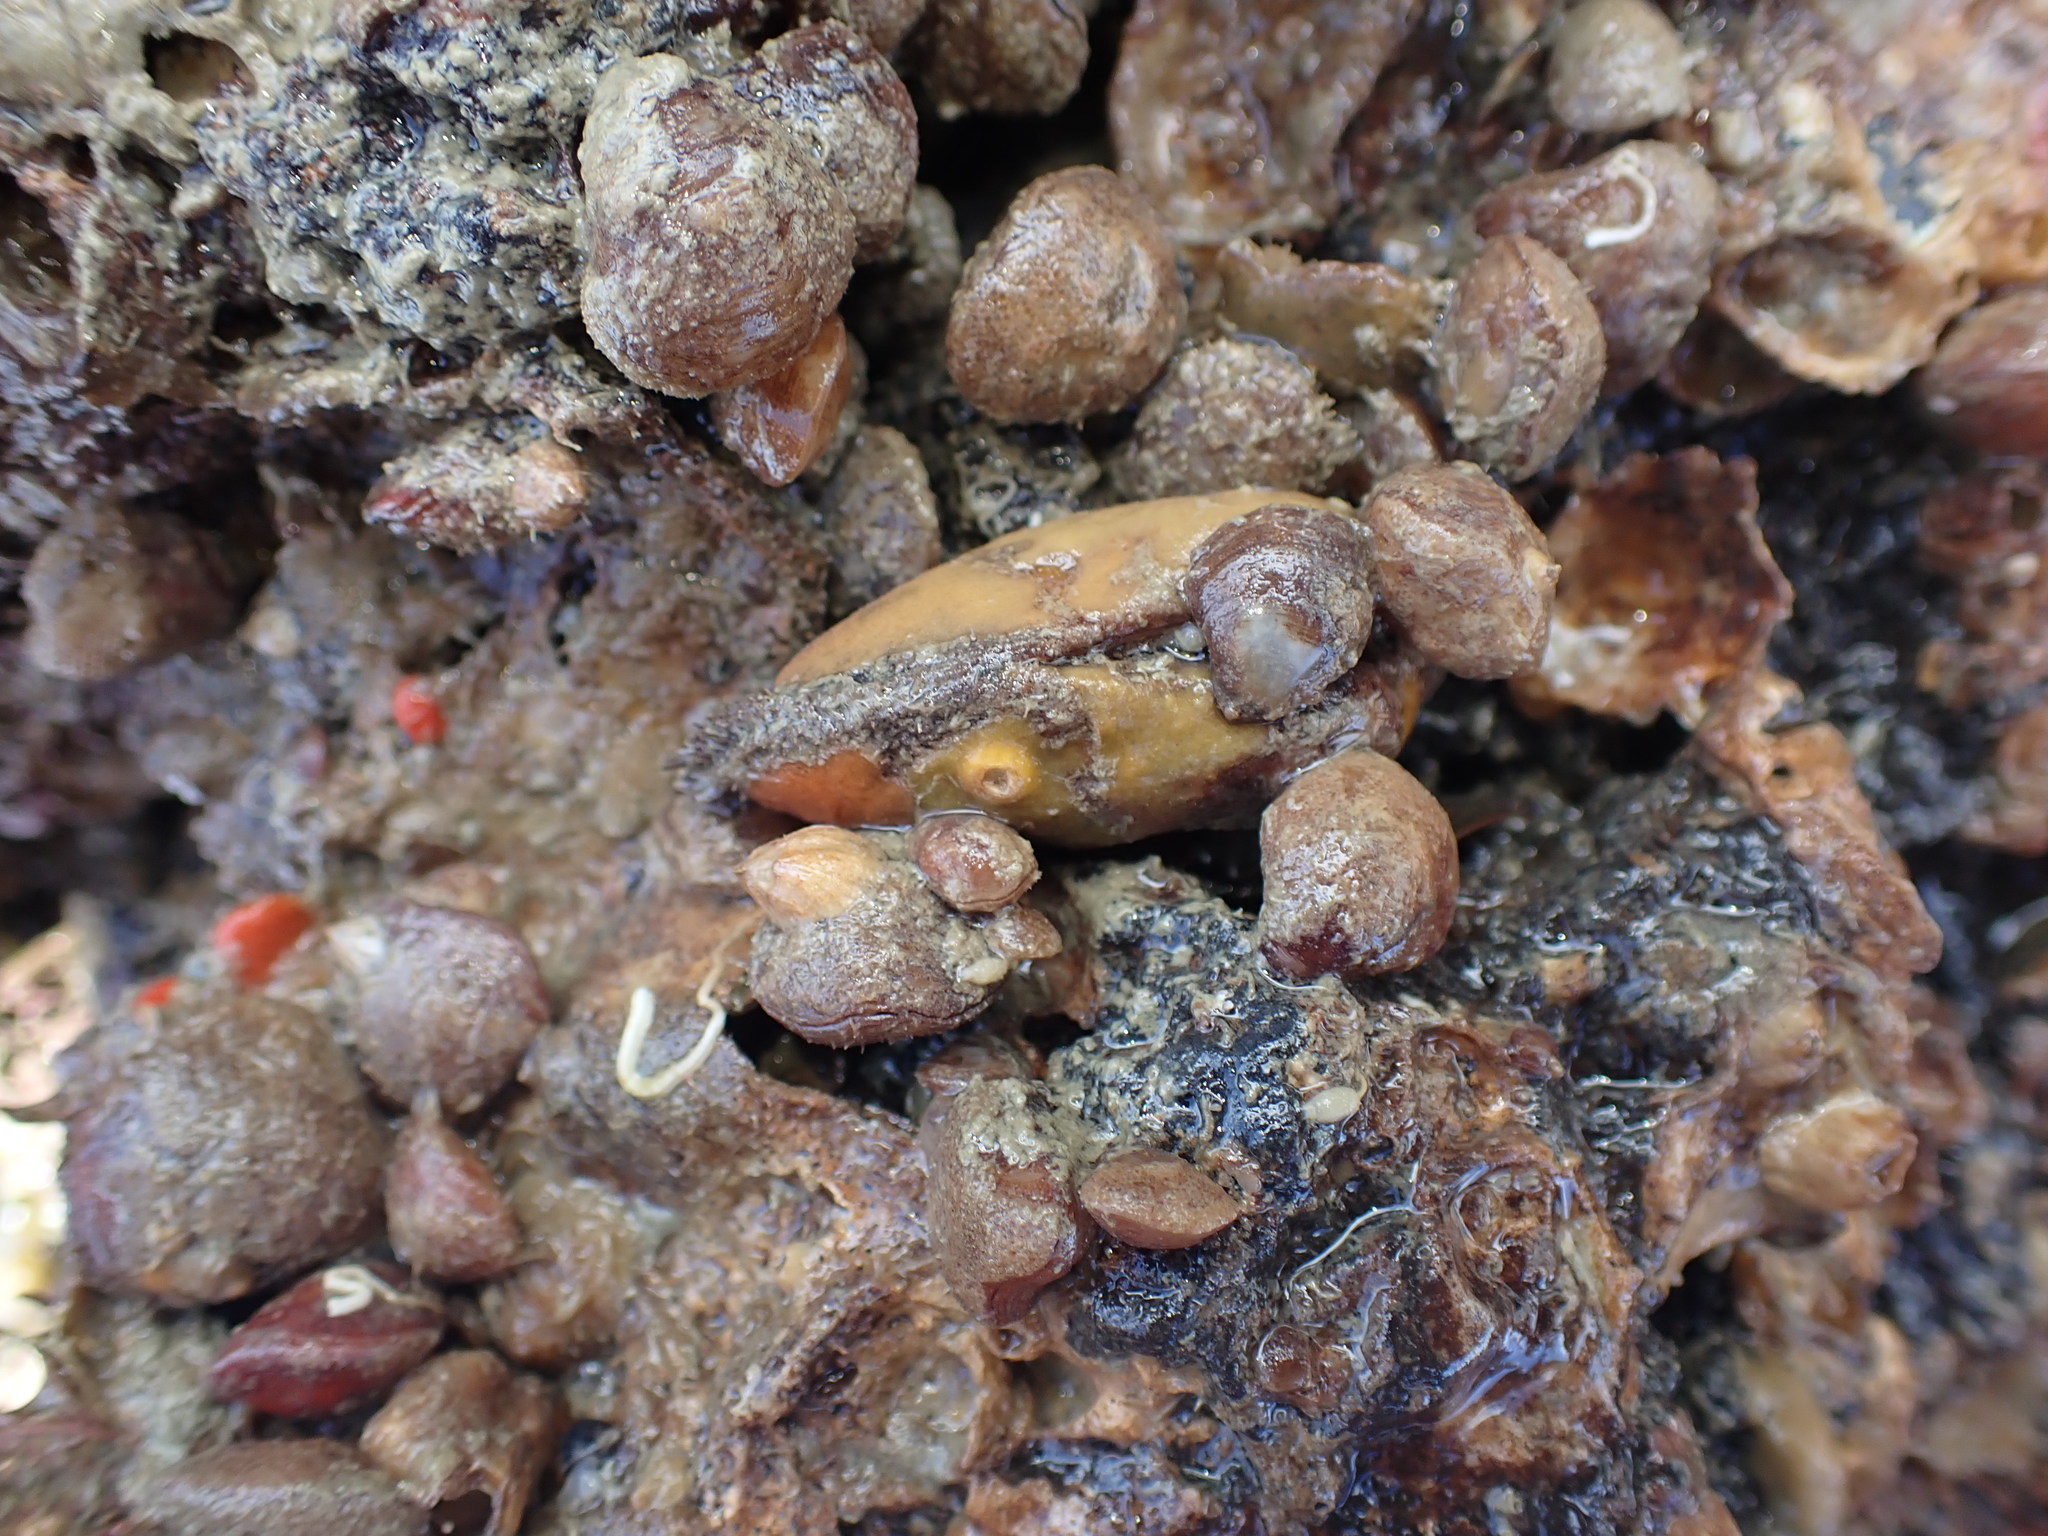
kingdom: Animalia
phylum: Mollusca
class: Bivalvia
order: Arcida
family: Arcidae
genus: Barbatia
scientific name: Barbatia novaezealandiae
